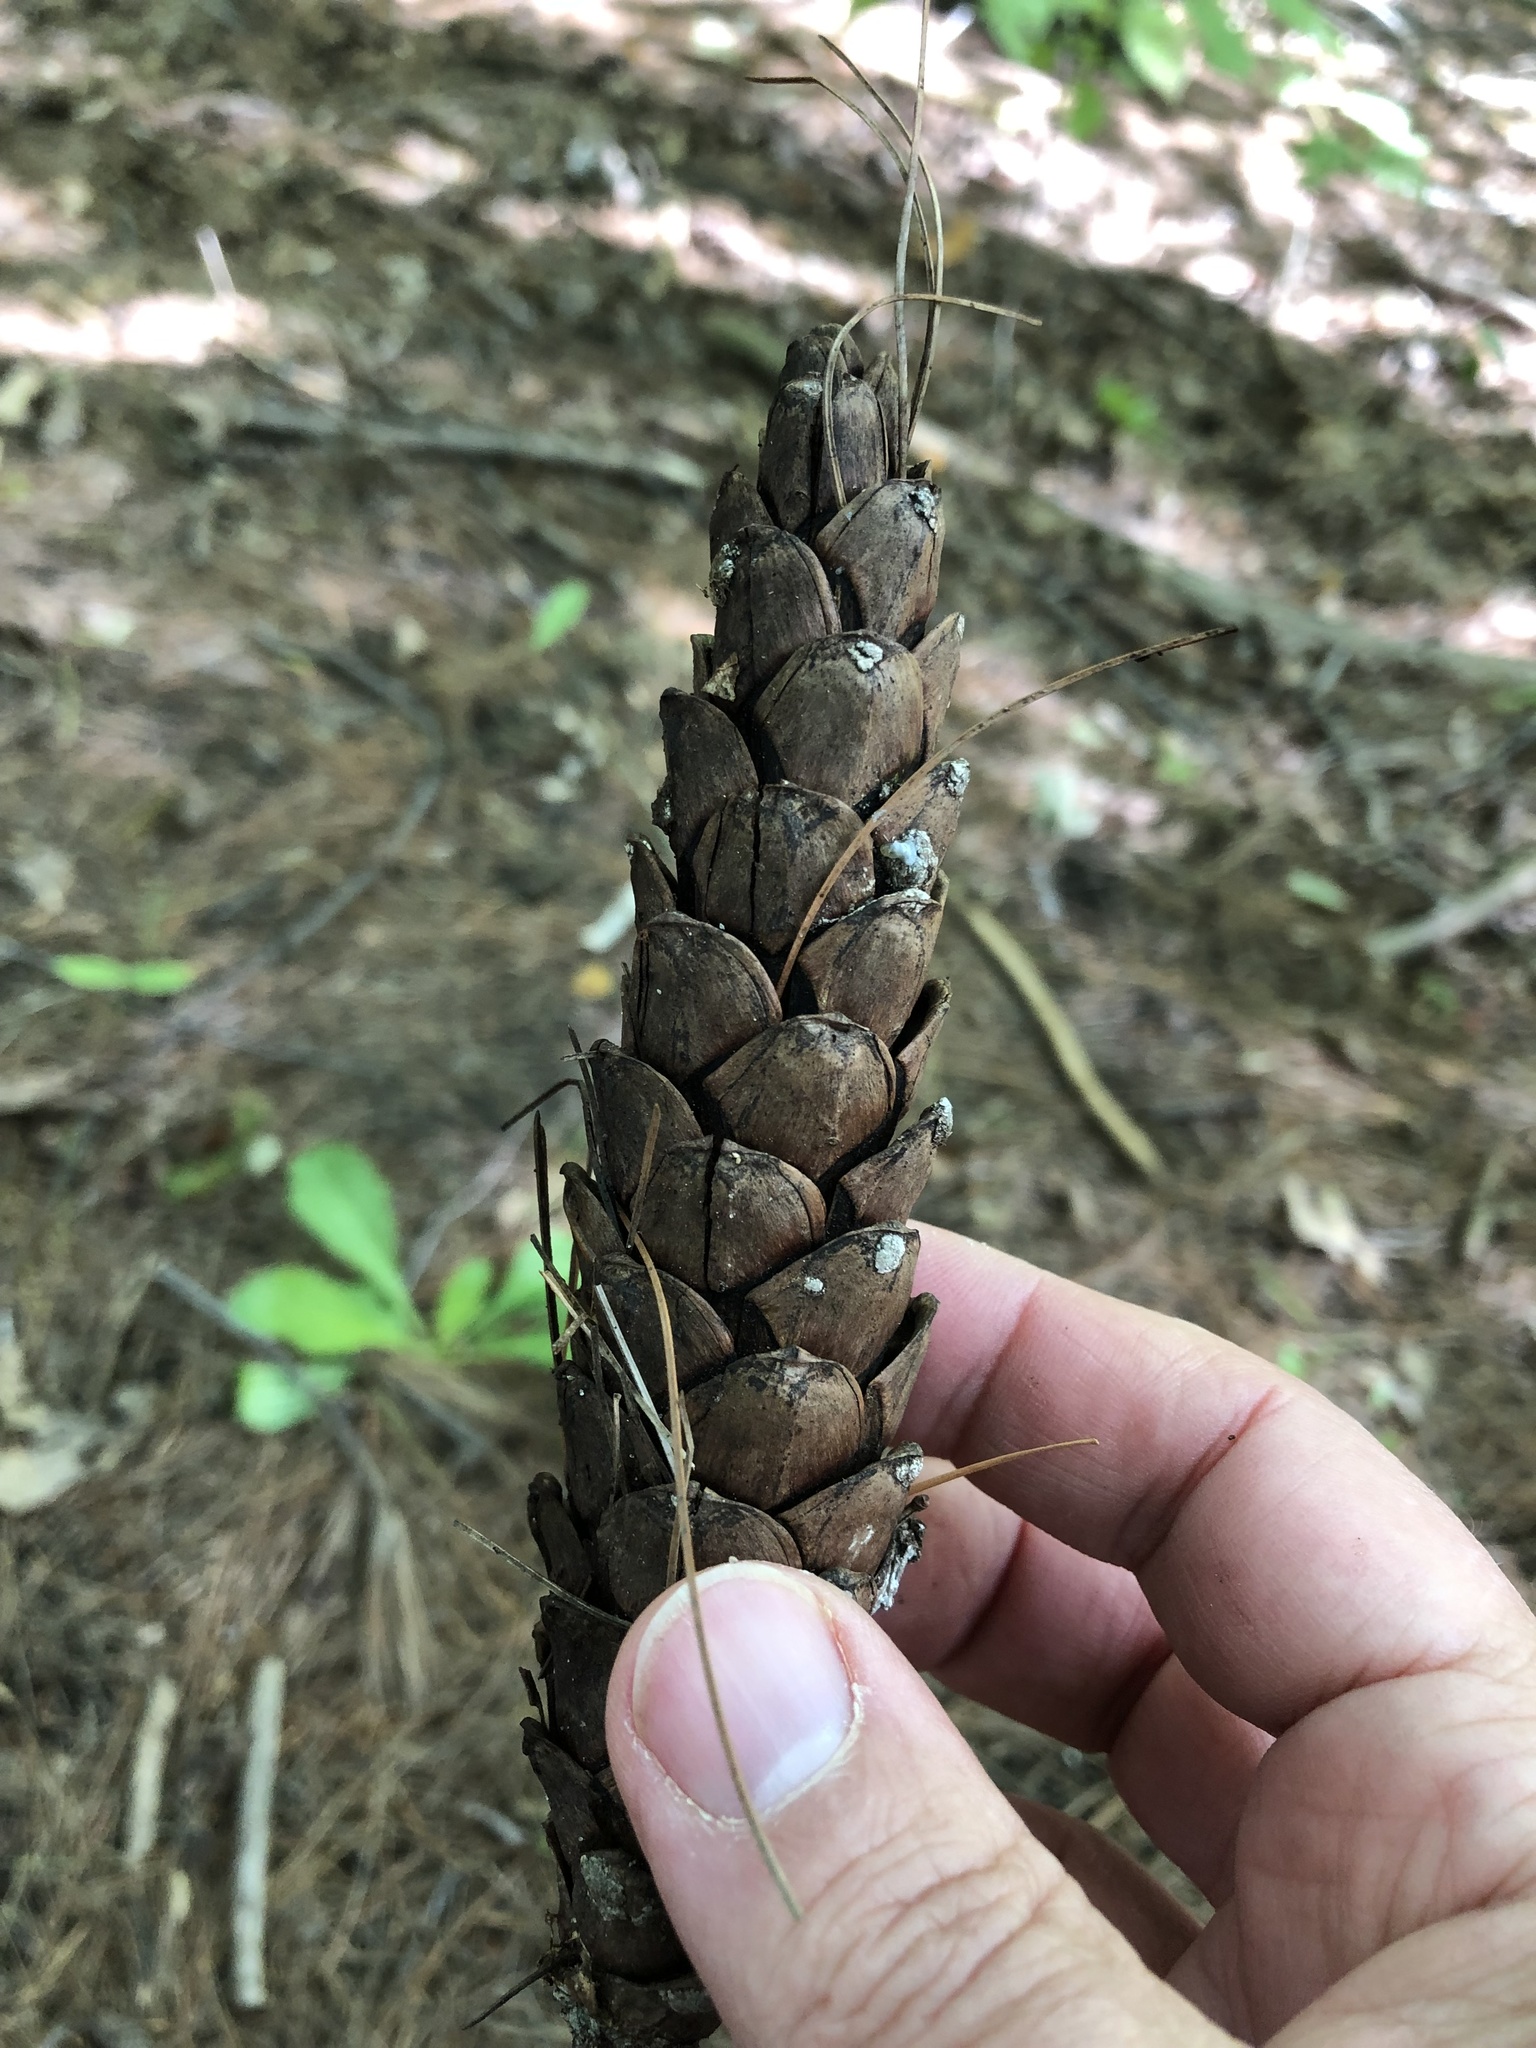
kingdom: Plantae
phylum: Tracheophyta
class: Pinopsida
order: Pinales
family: Pinaceae
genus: Pinus
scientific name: Pinus strobus
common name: Weymouth pine
